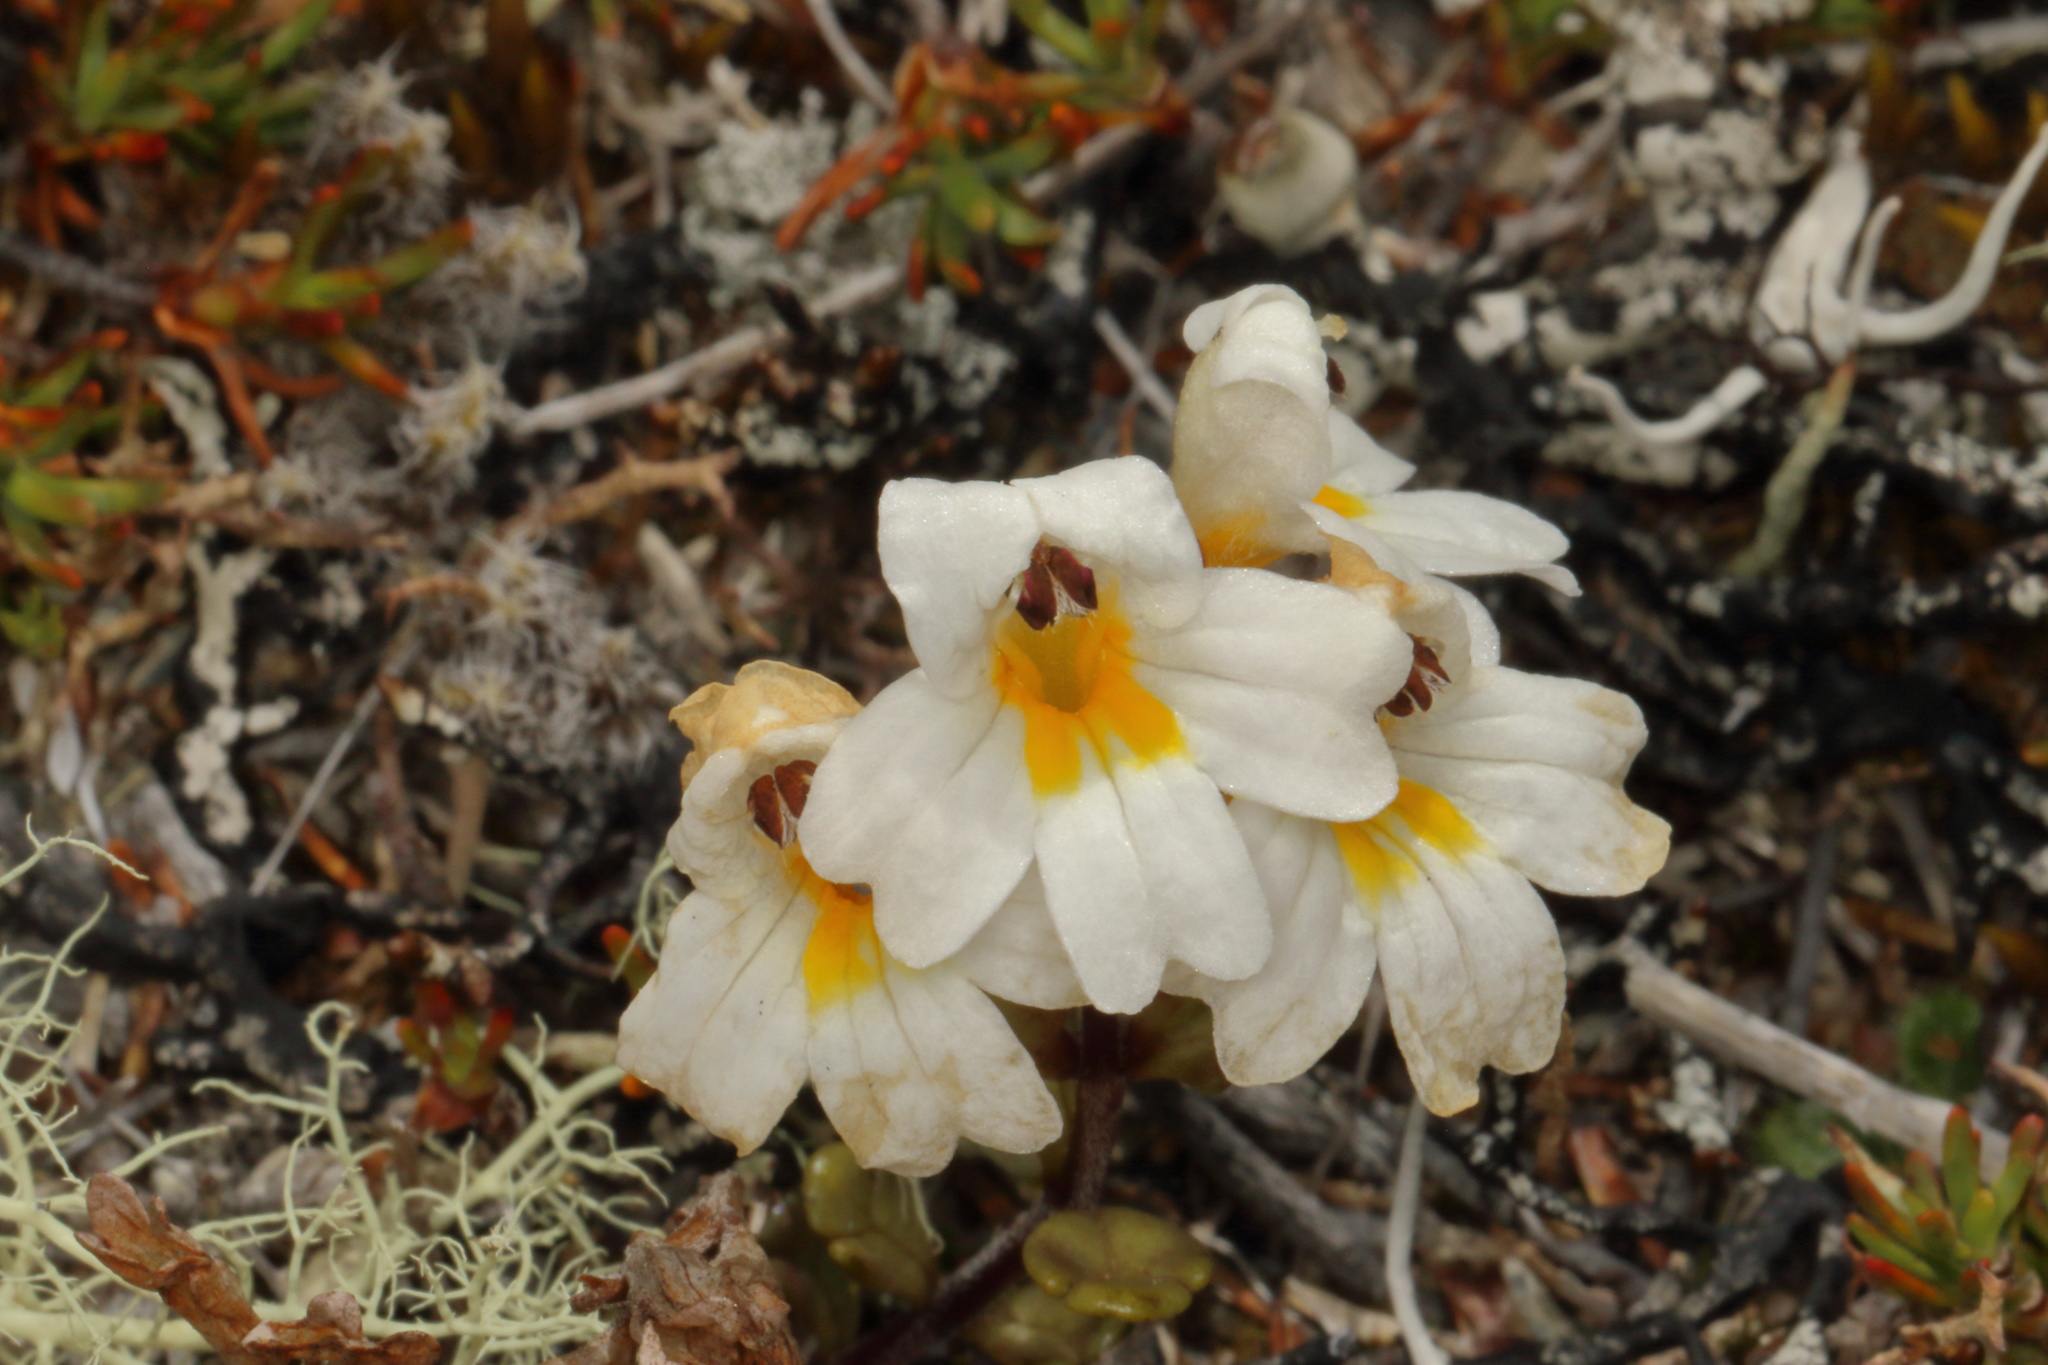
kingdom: Plantae
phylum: Tracheophyta
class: Magnoliopsida
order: Lamiales
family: Orobanchaceae
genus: Euphrasia
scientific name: Euphrasia laingii
